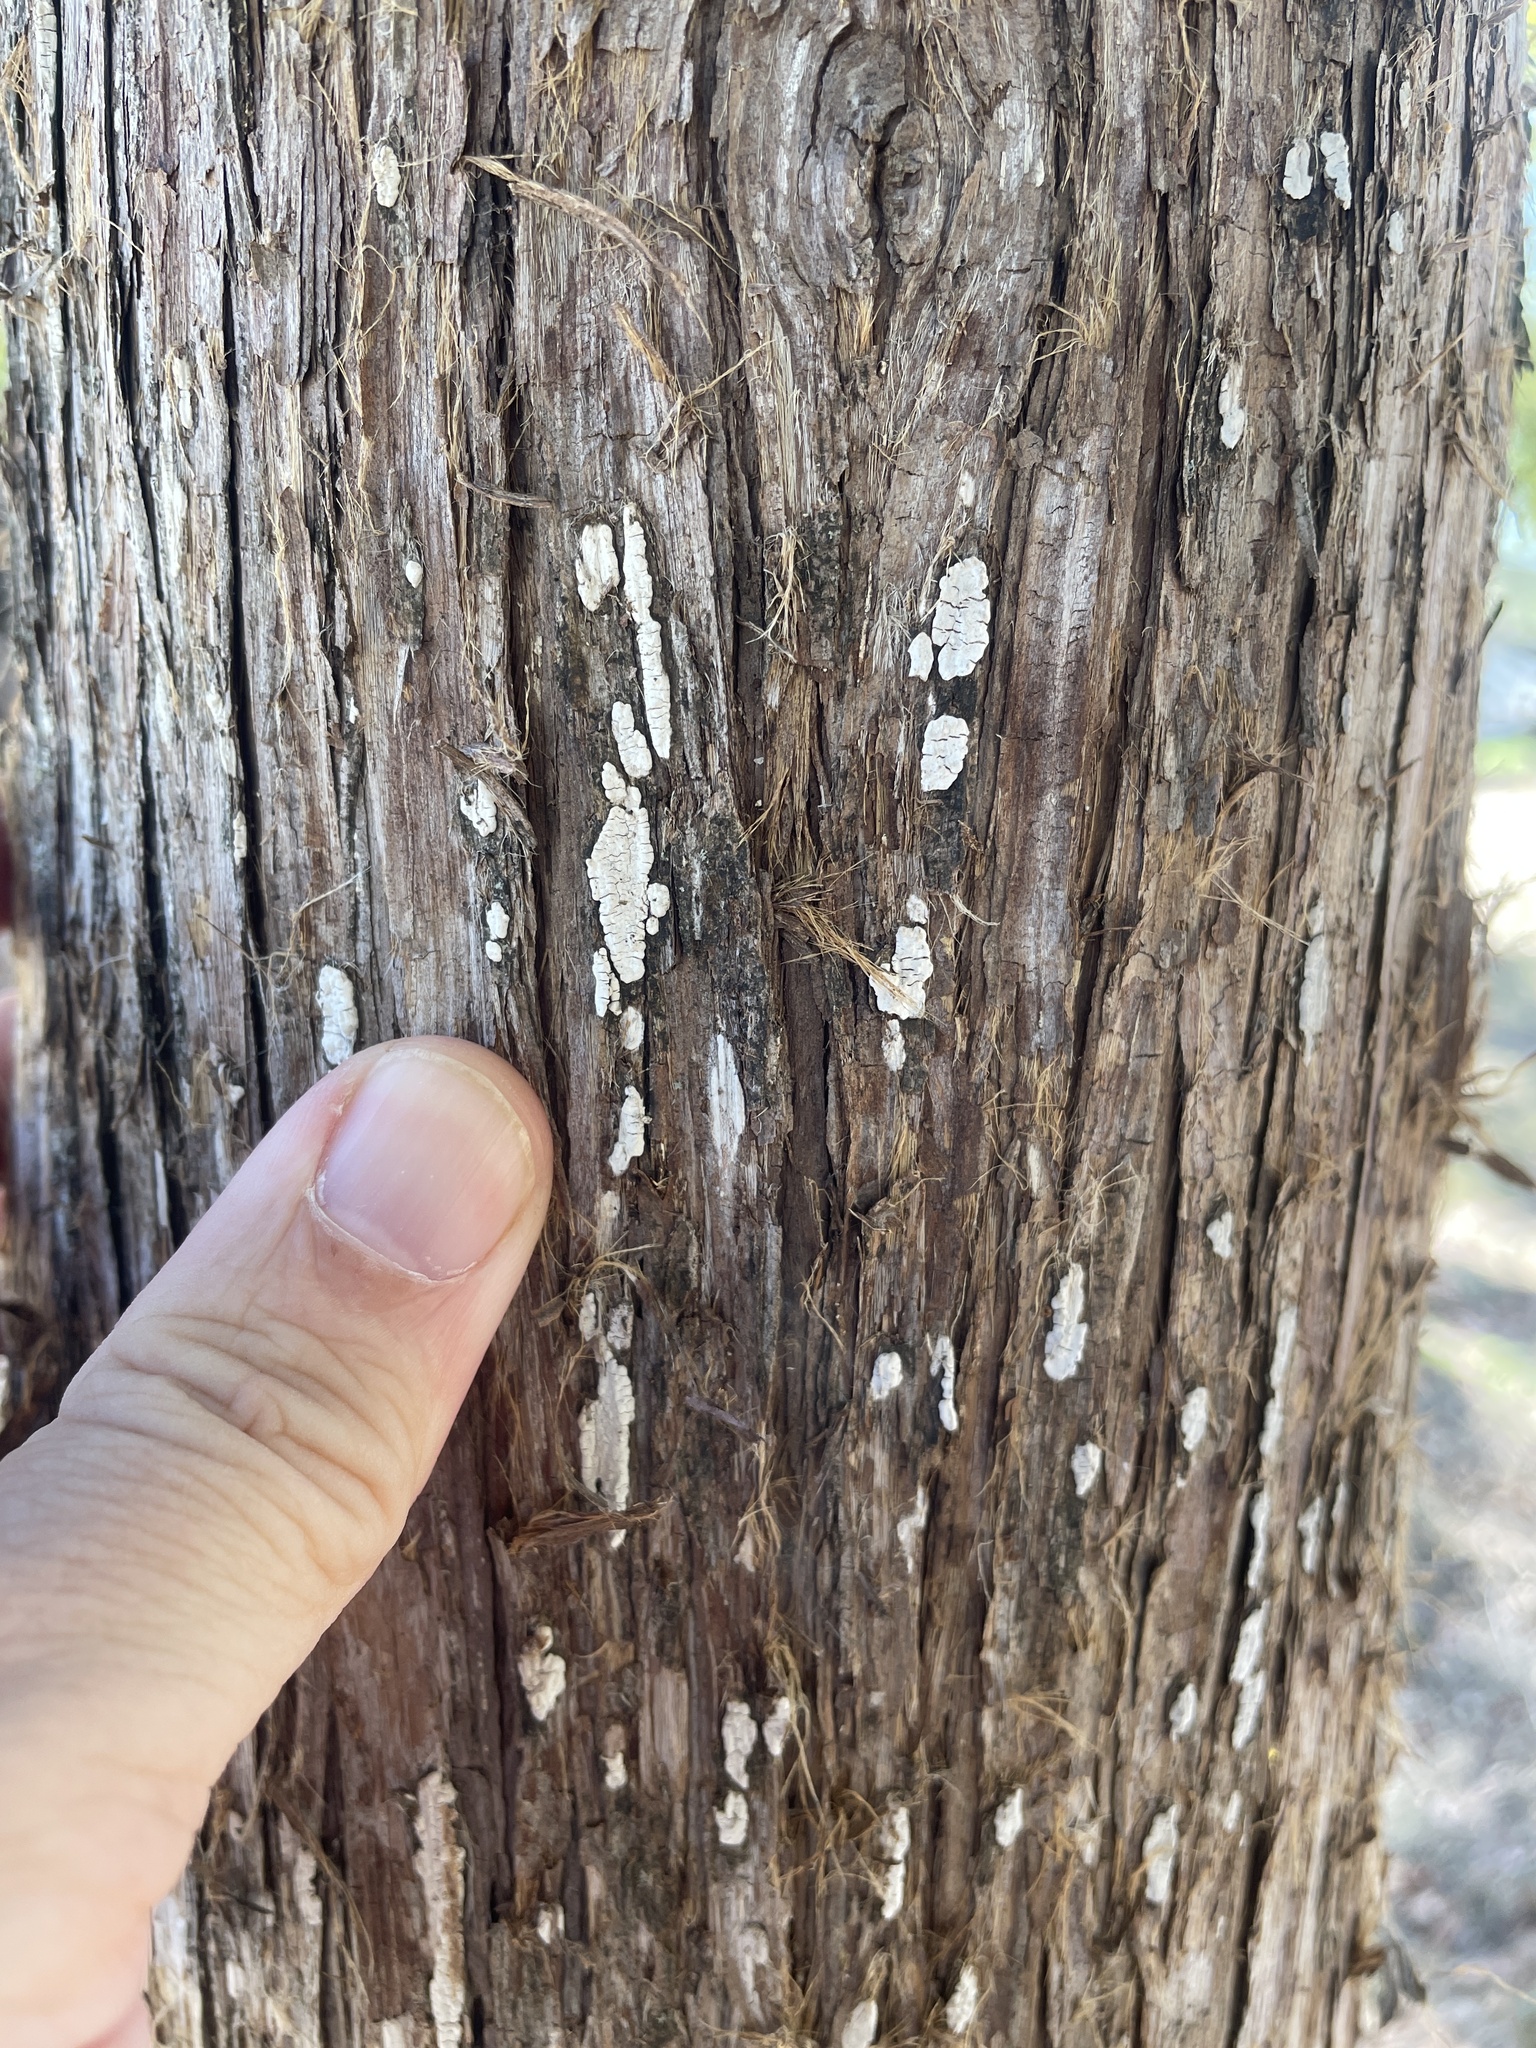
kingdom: Fungi
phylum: Basidiomycota
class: Agaricomycetes
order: Agaricales
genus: Dendrothele
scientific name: Dendrothele nivosa
